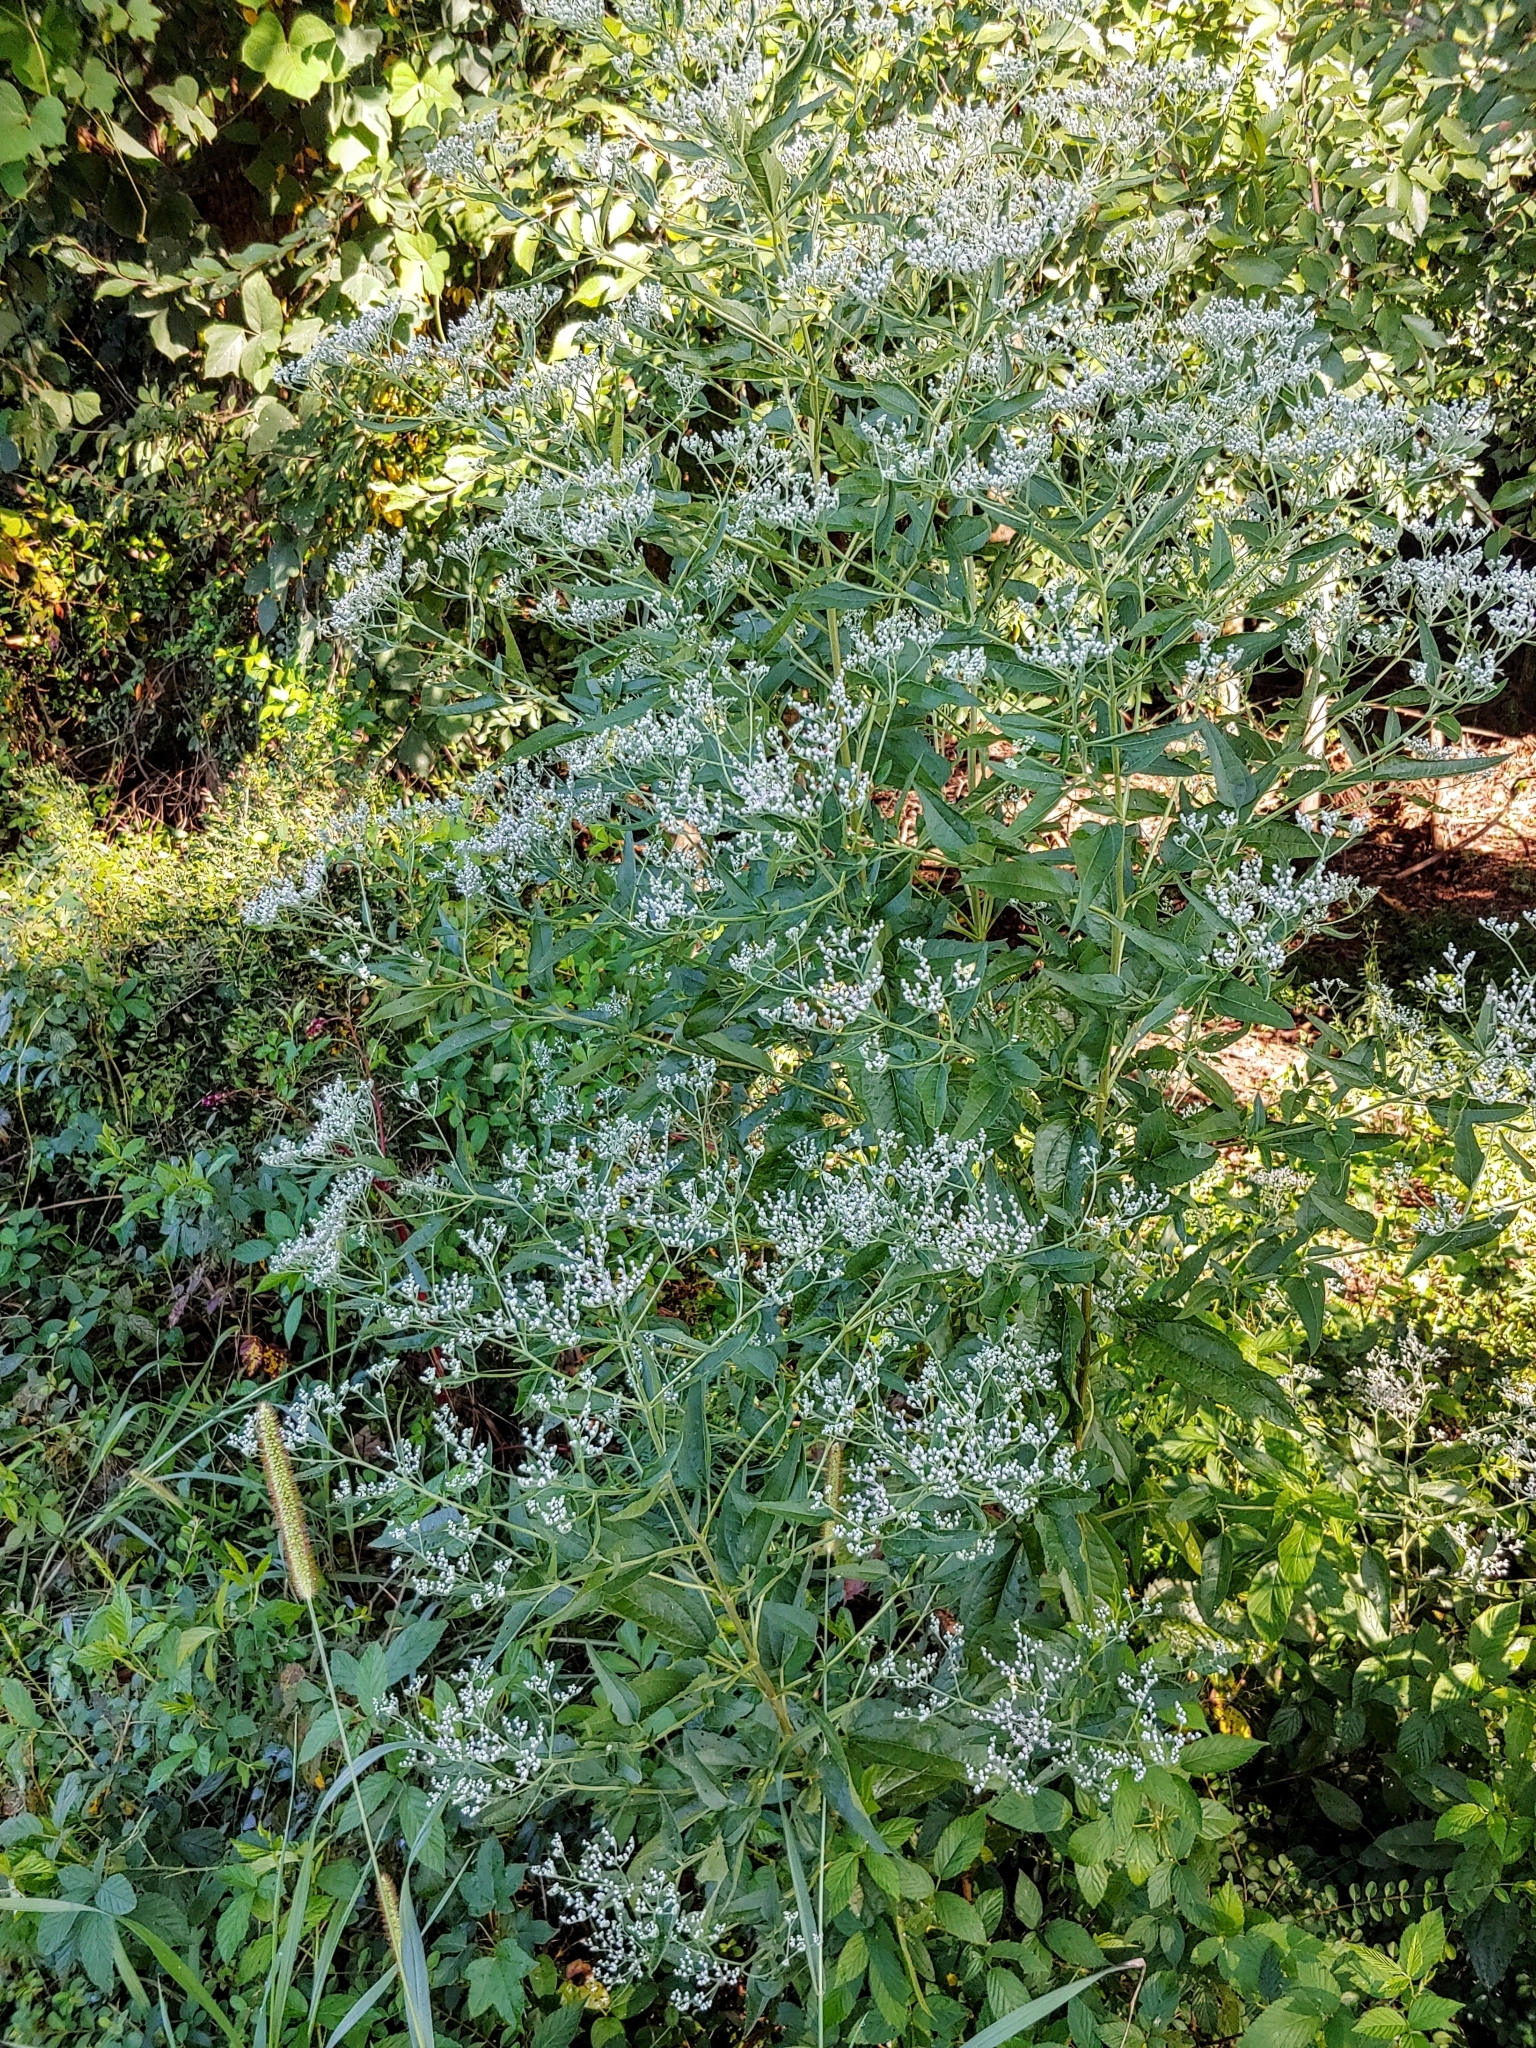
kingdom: Plantae
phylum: Tracheophyta
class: Magnoliopsida
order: Asterales
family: Asteraceae
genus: Eupatorium
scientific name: Eupatorium serotinum
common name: Late boneset
